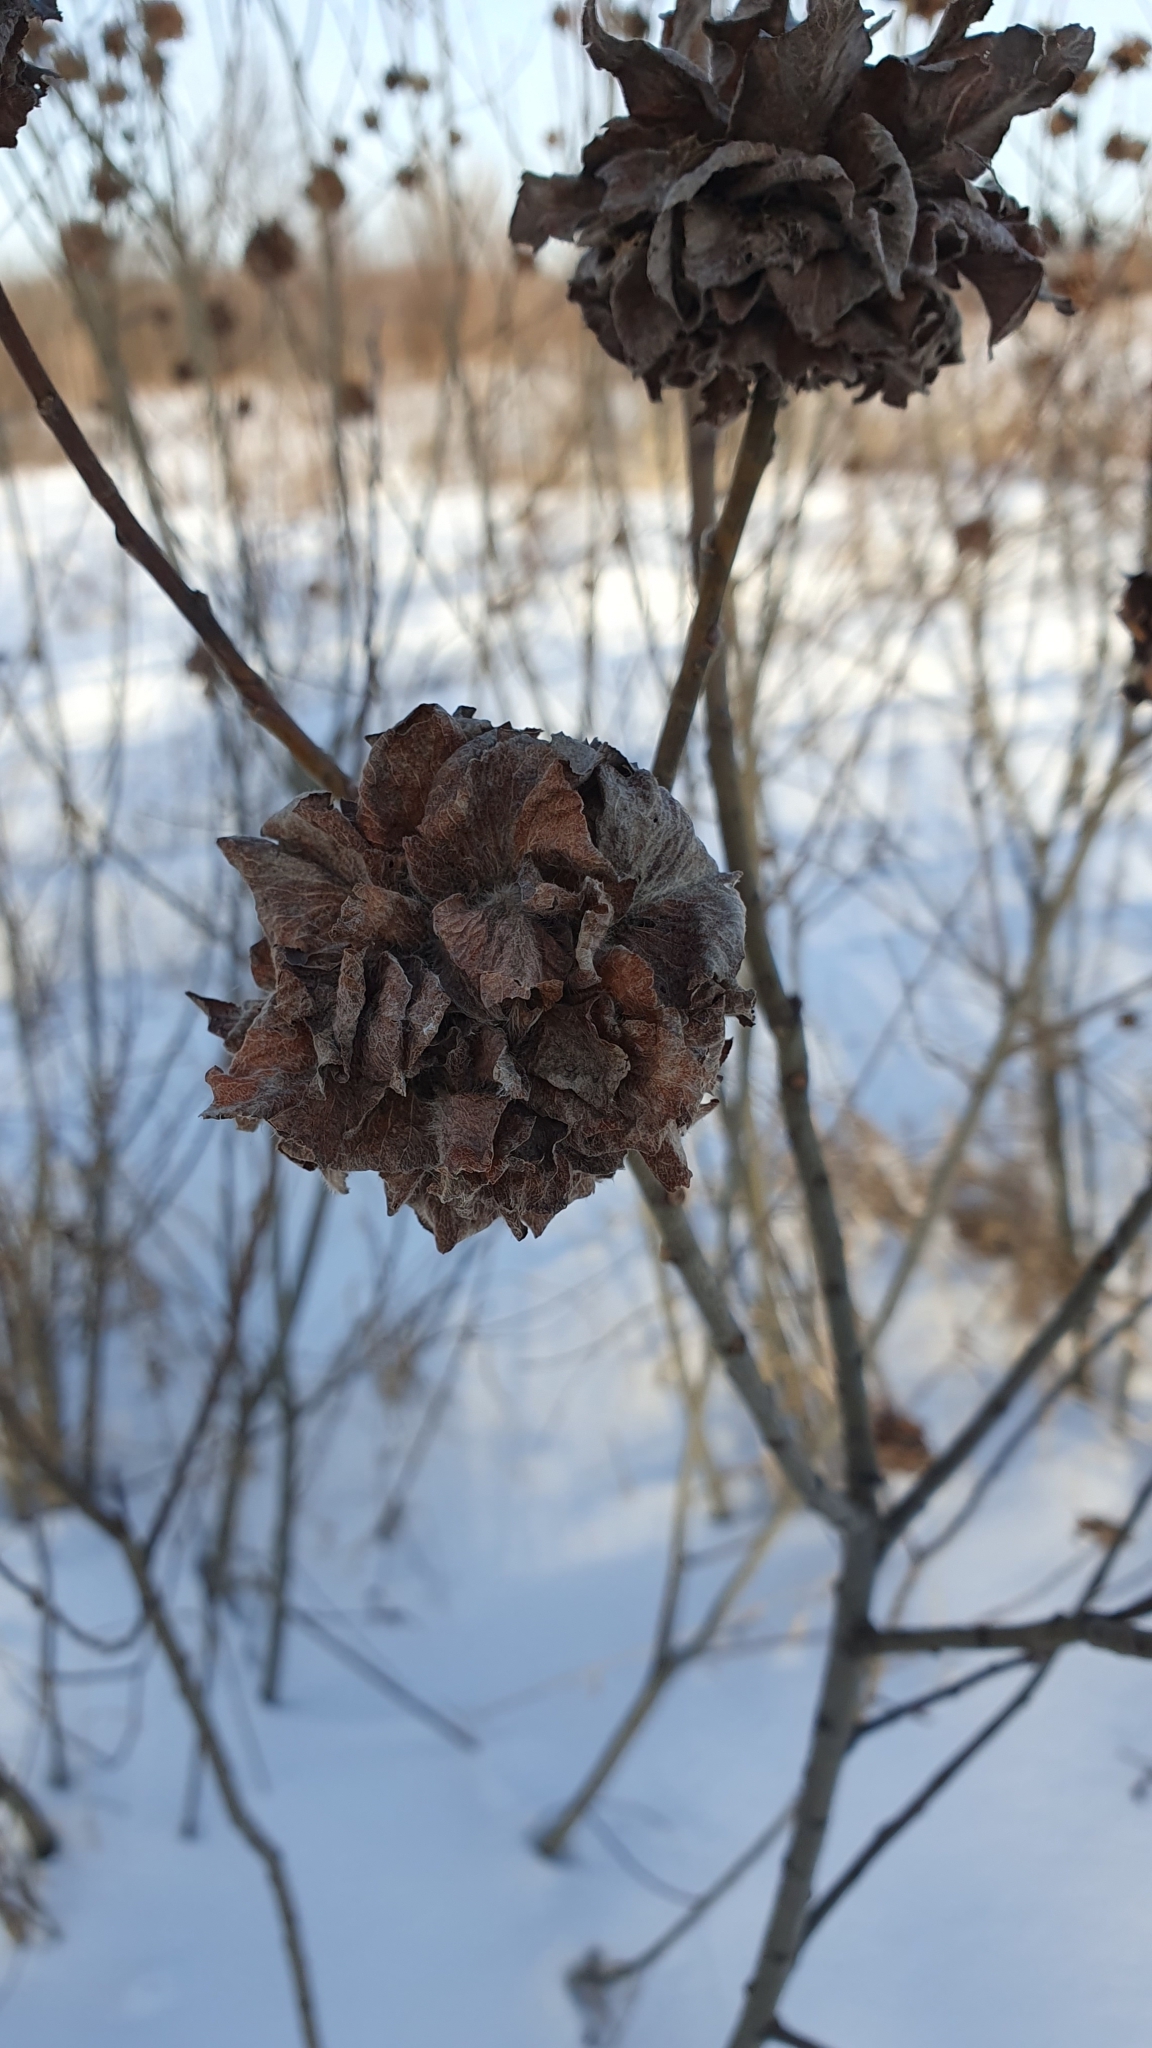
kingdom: Animalia
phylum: Arthropoda
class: Insecta
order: Diptera
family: Cecidomyiidae
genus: Rabdophaga
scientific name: Rabdophaga rosaria
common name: Willow rose gall midge
